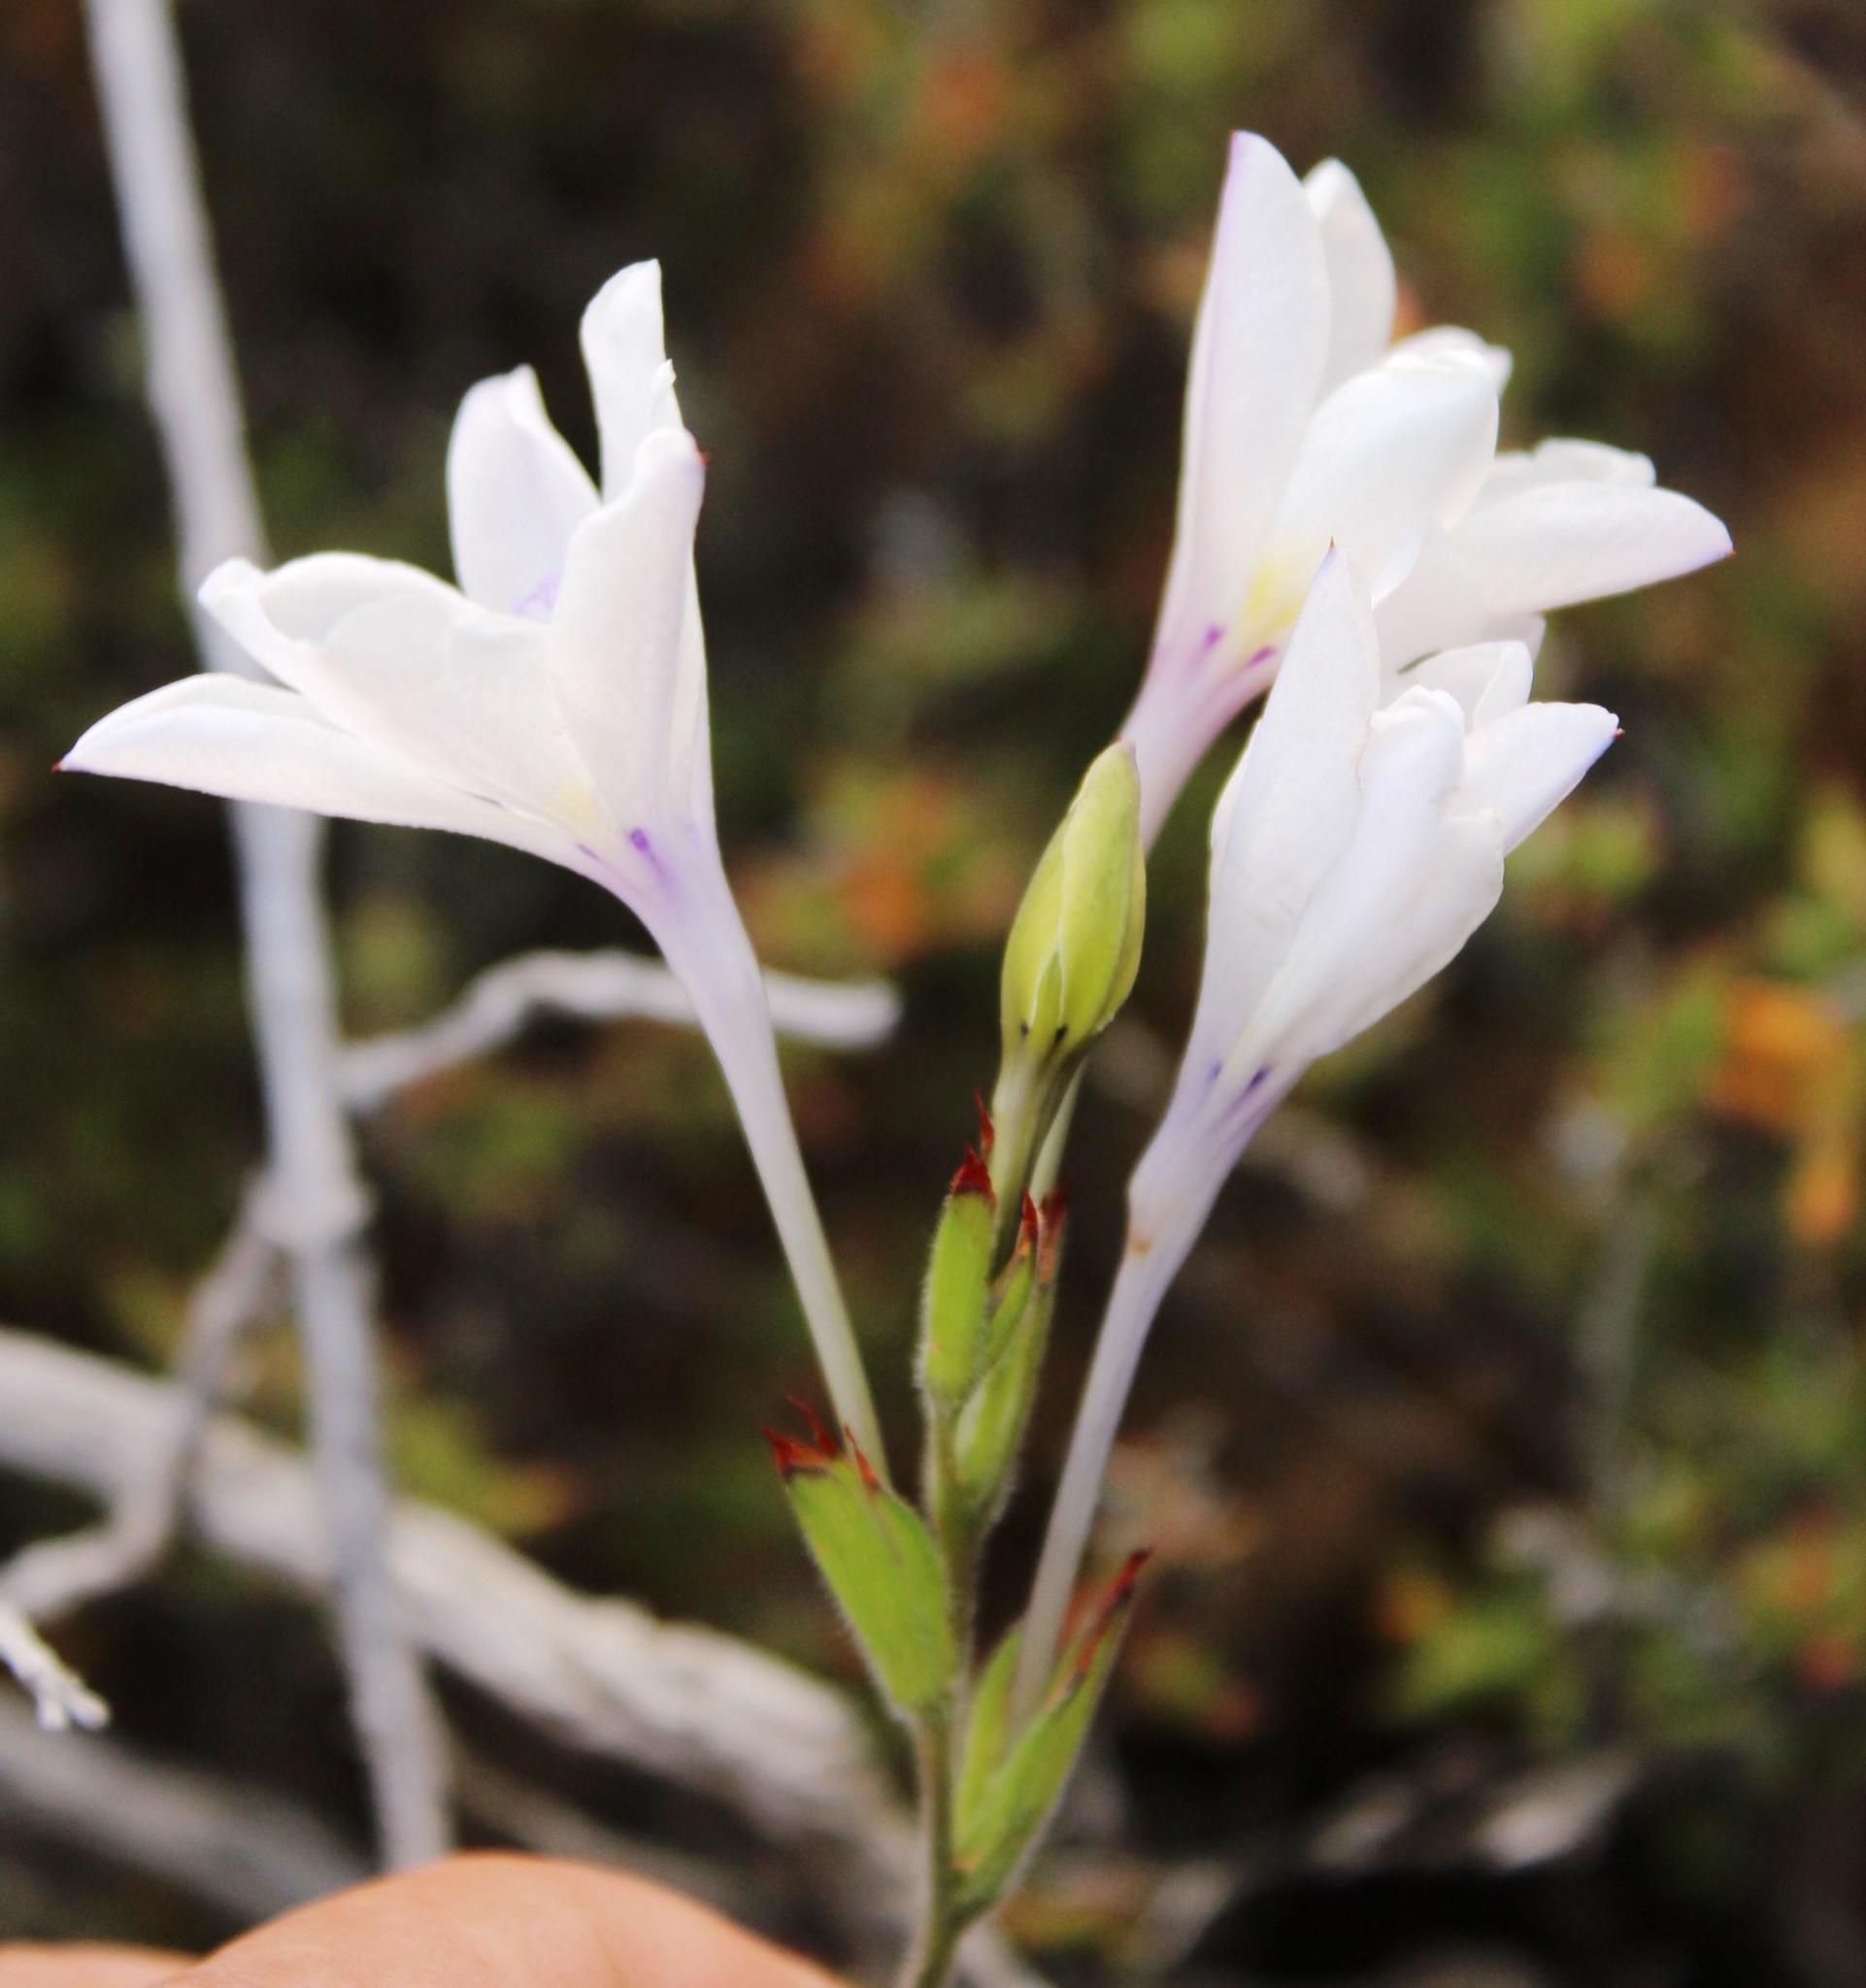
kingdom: Plantae
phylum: Tracheophyta
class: Liliopsida
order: Asparagales
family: Iridaceae
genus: Babiana
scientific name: Babiana patersoniae
